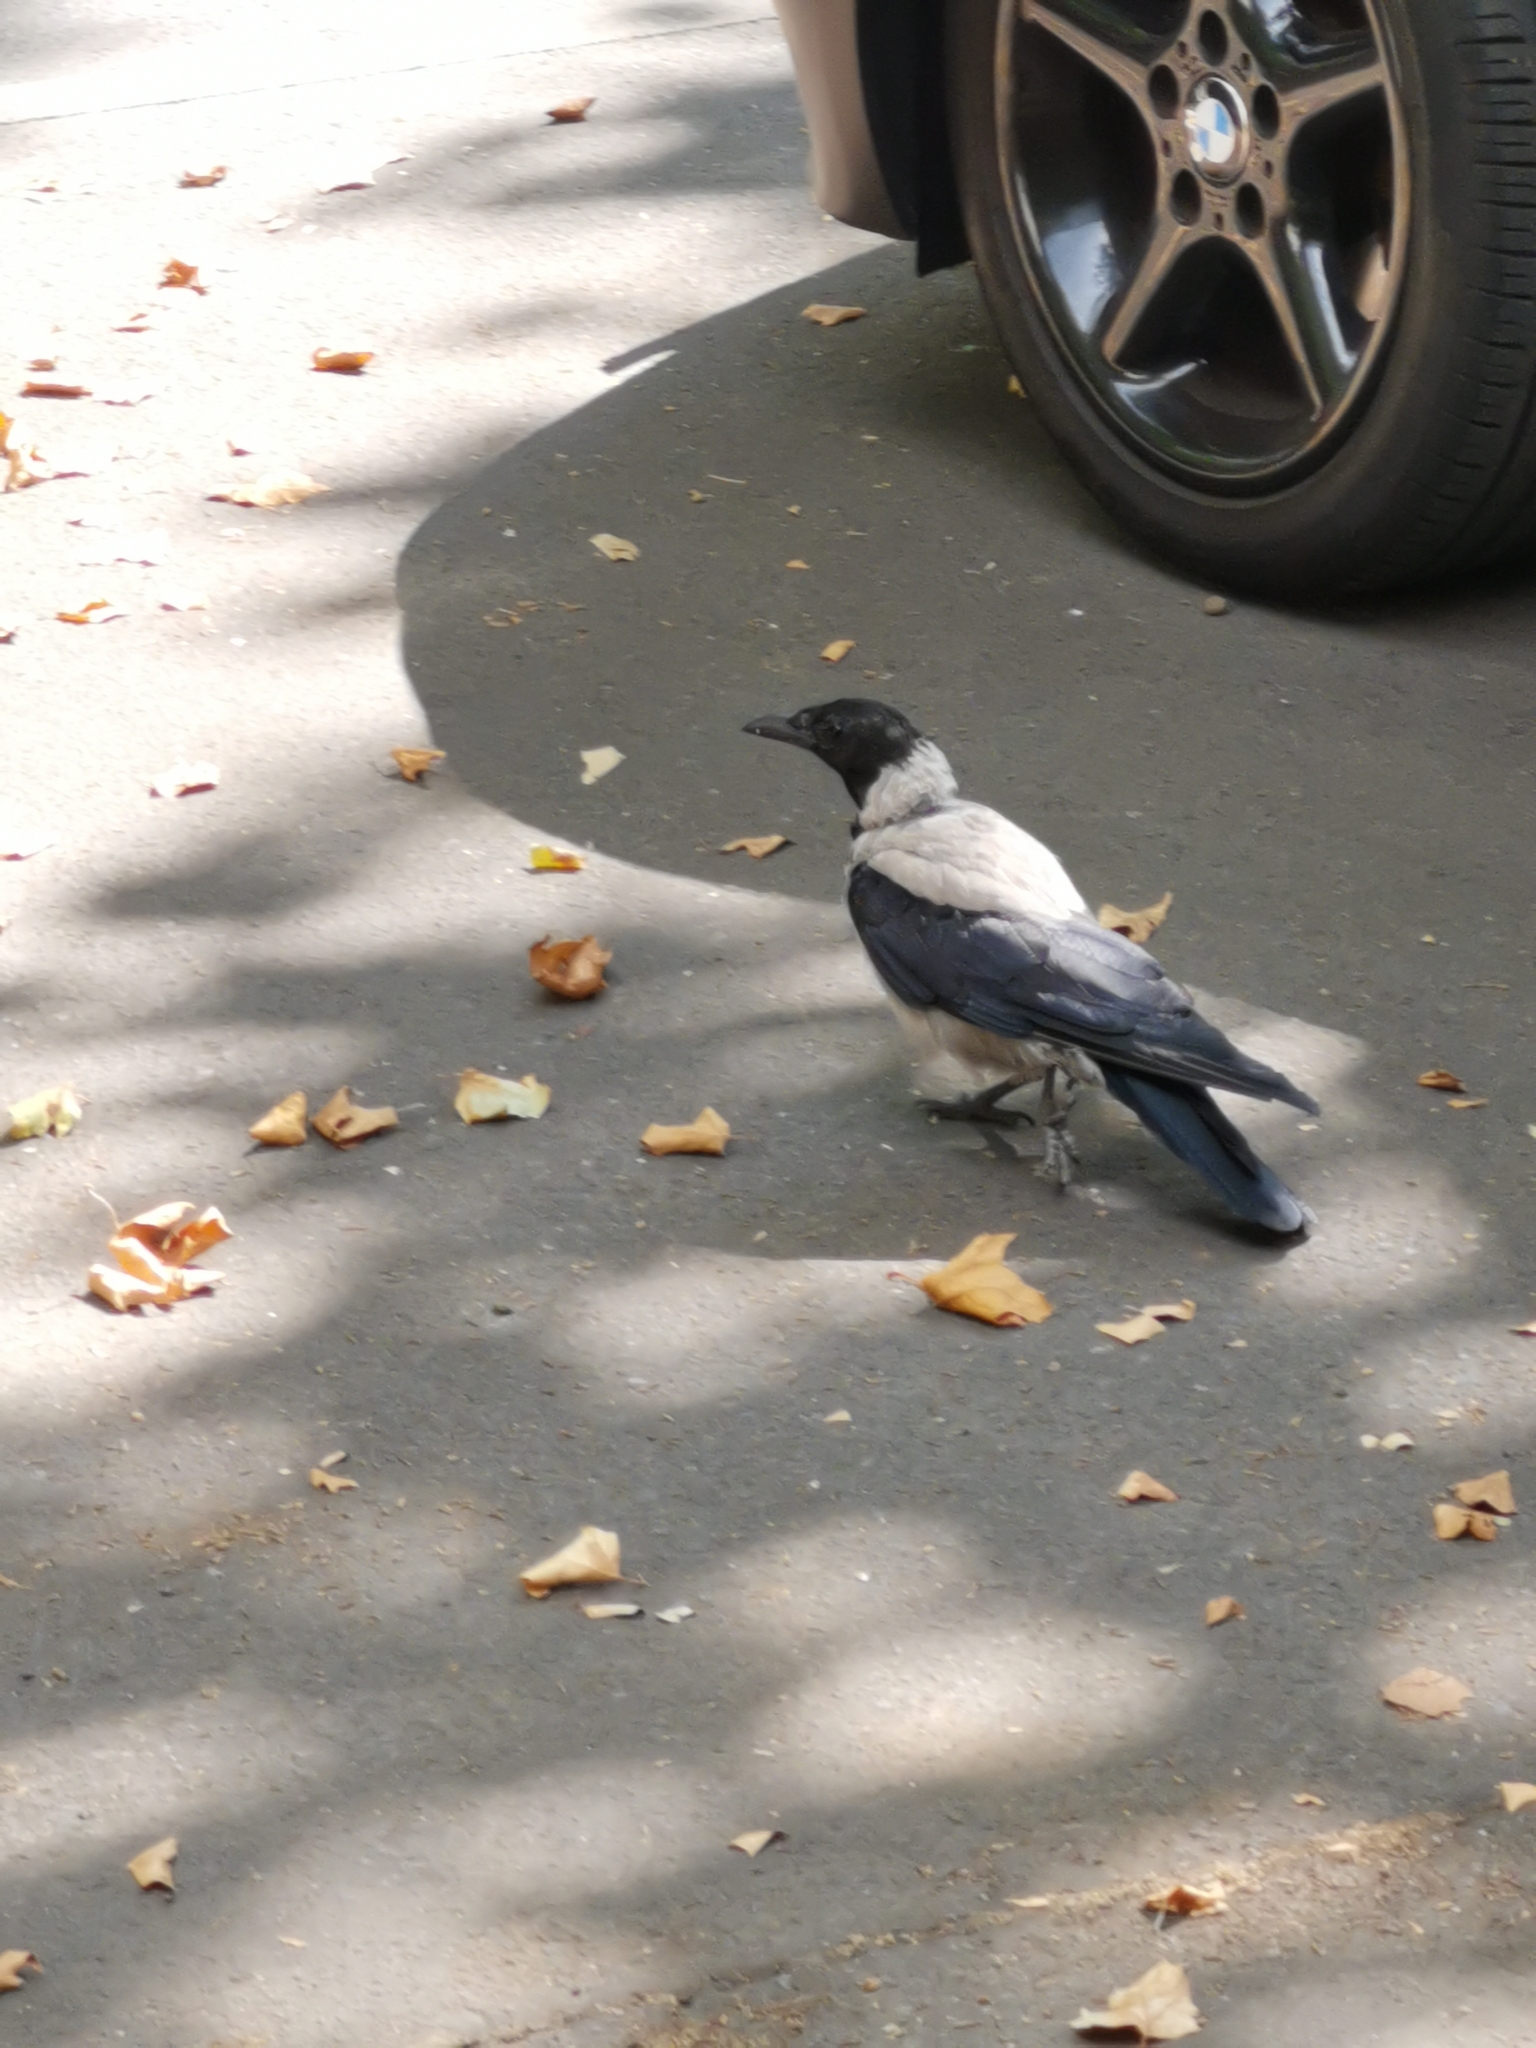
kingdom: Animalia
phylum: Chordata
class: Aves
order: Passeriformes
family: Corvidae
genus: Corvus
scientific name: Corvus cornix
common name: Hooded crow
